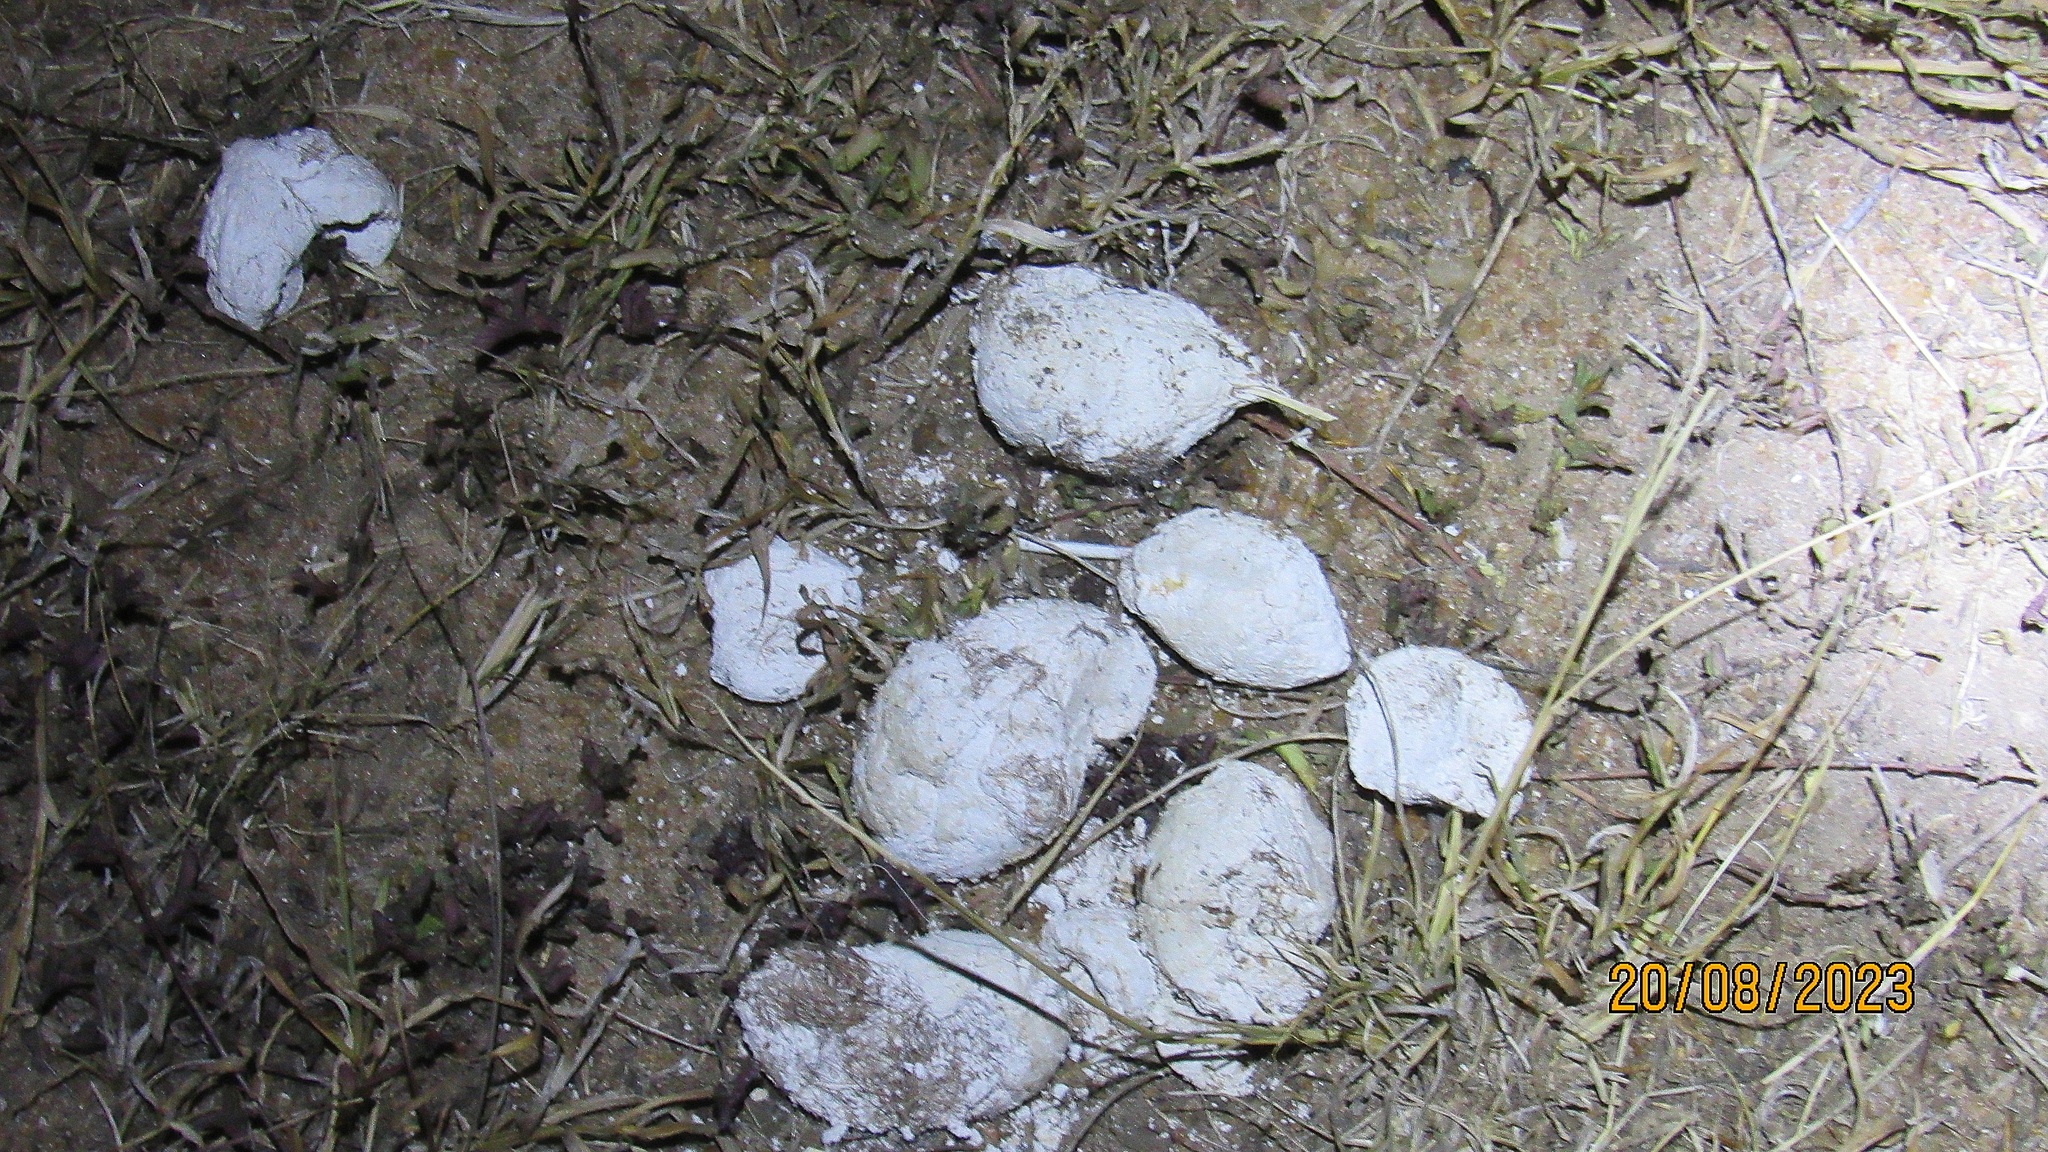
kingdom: Animalia
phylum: Chordata
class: Mammalia
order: Carnivora
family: Hyaenidae
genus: Crocuta
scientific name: Crocuta crocuta
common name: Spotted hyaena
